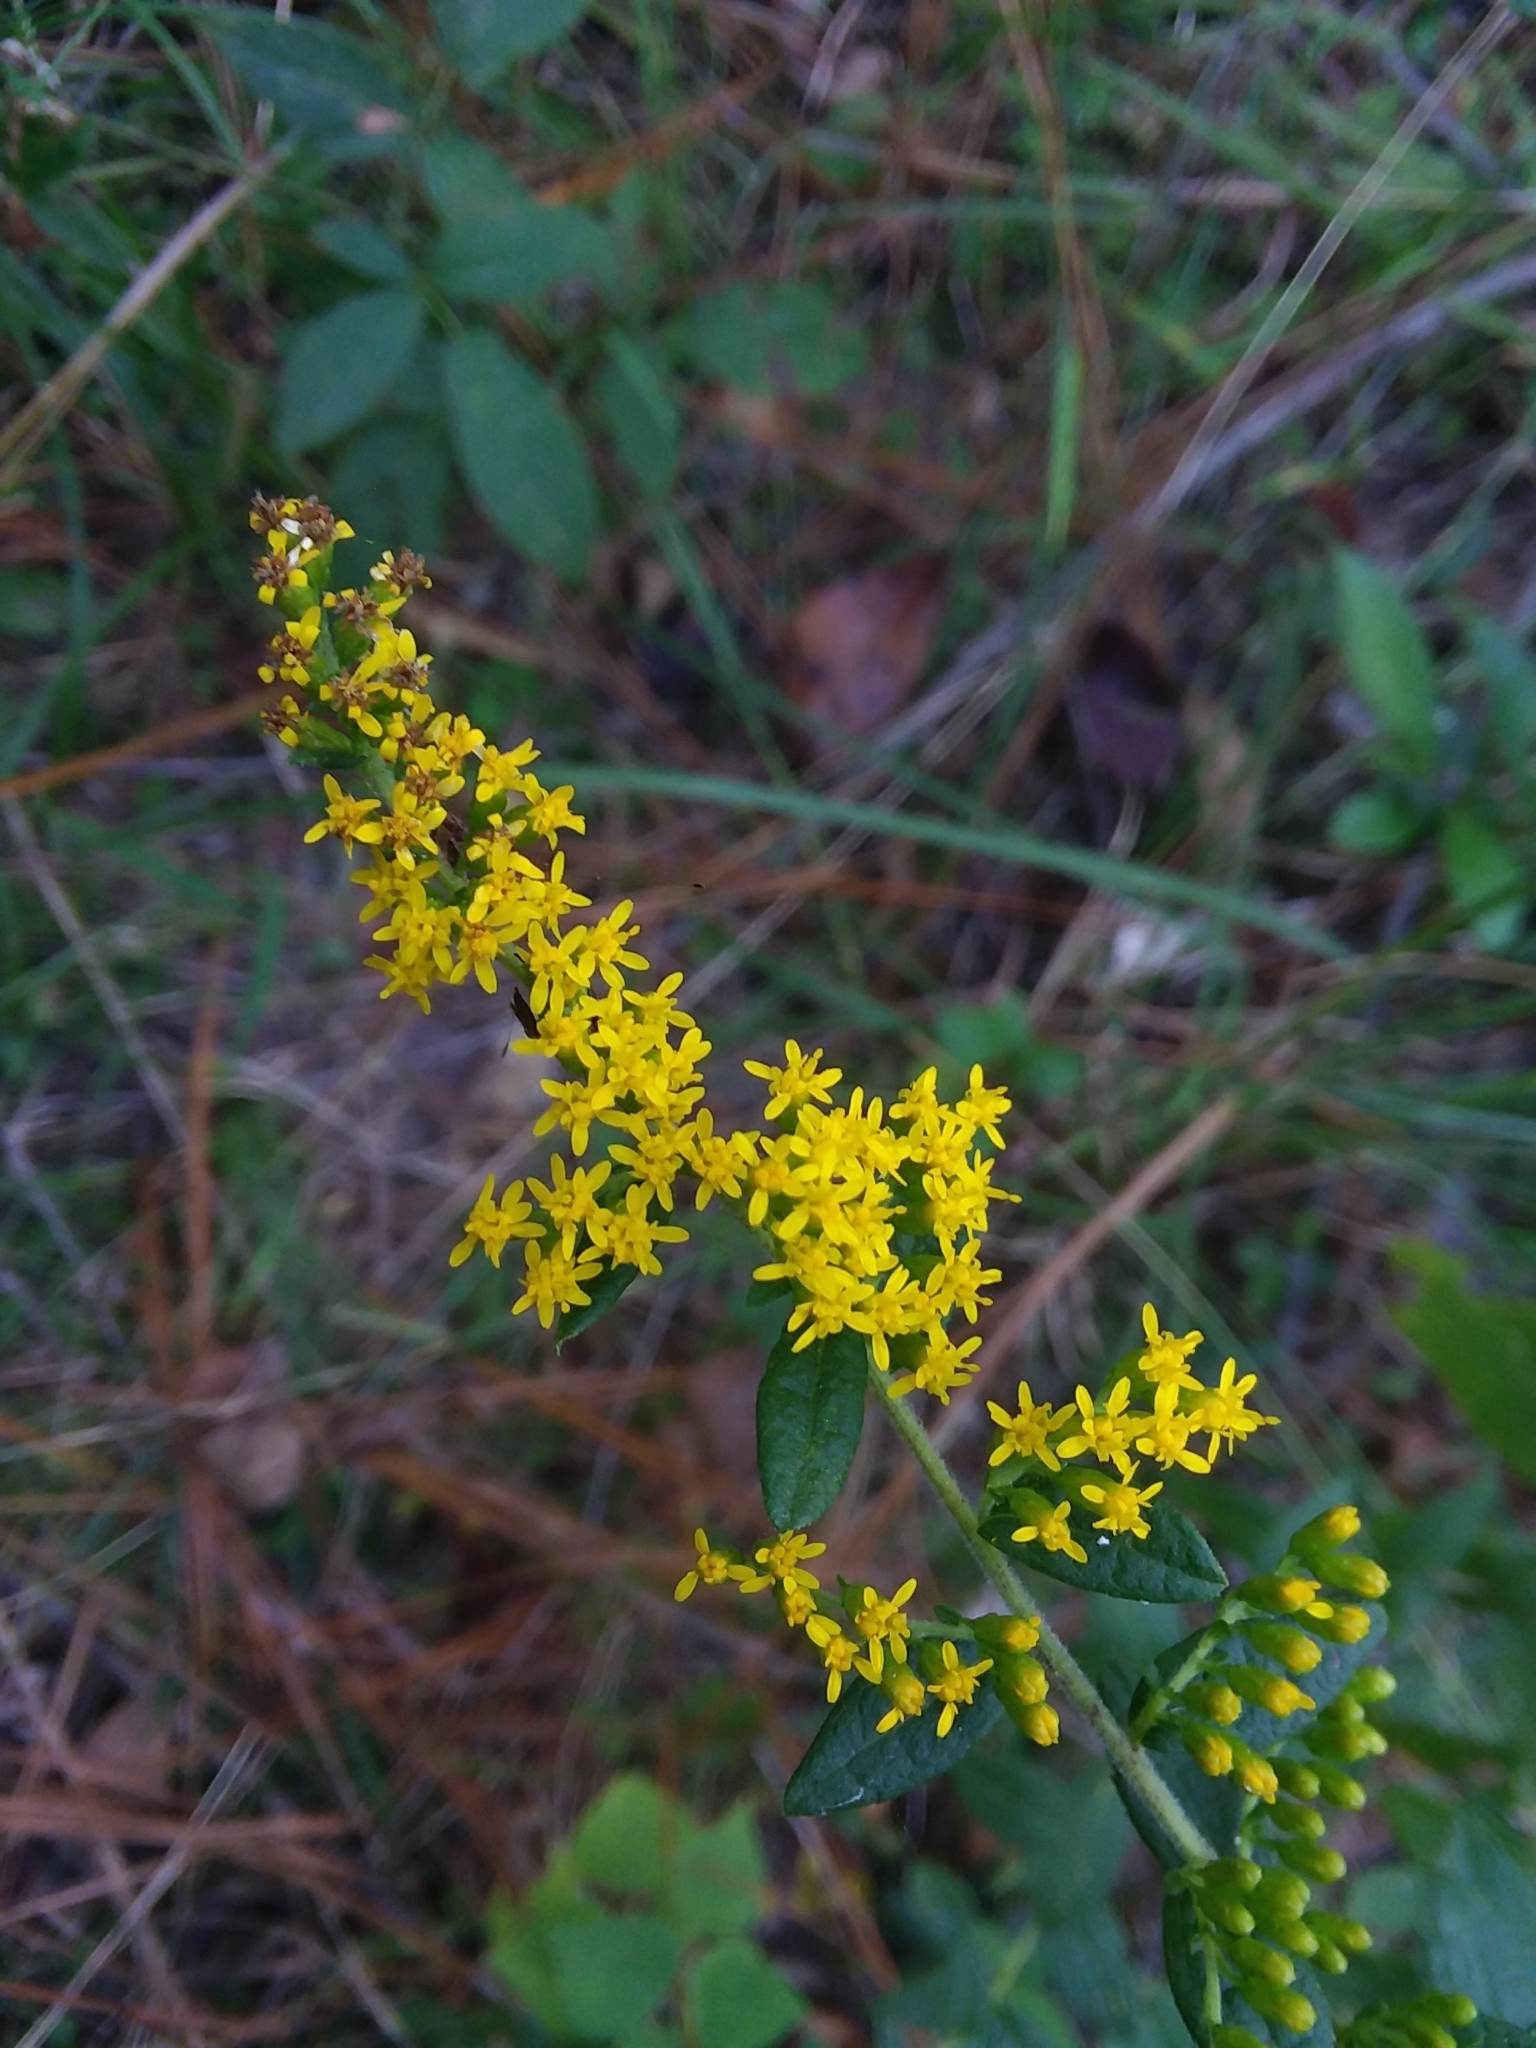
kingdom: Plantae
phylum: Tracheophyta
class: Magnoliopsida
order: Asterales
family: Asteraceae
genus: Solidago
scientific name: Solidago rugosa
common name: Rough-stemmed goldenrod
